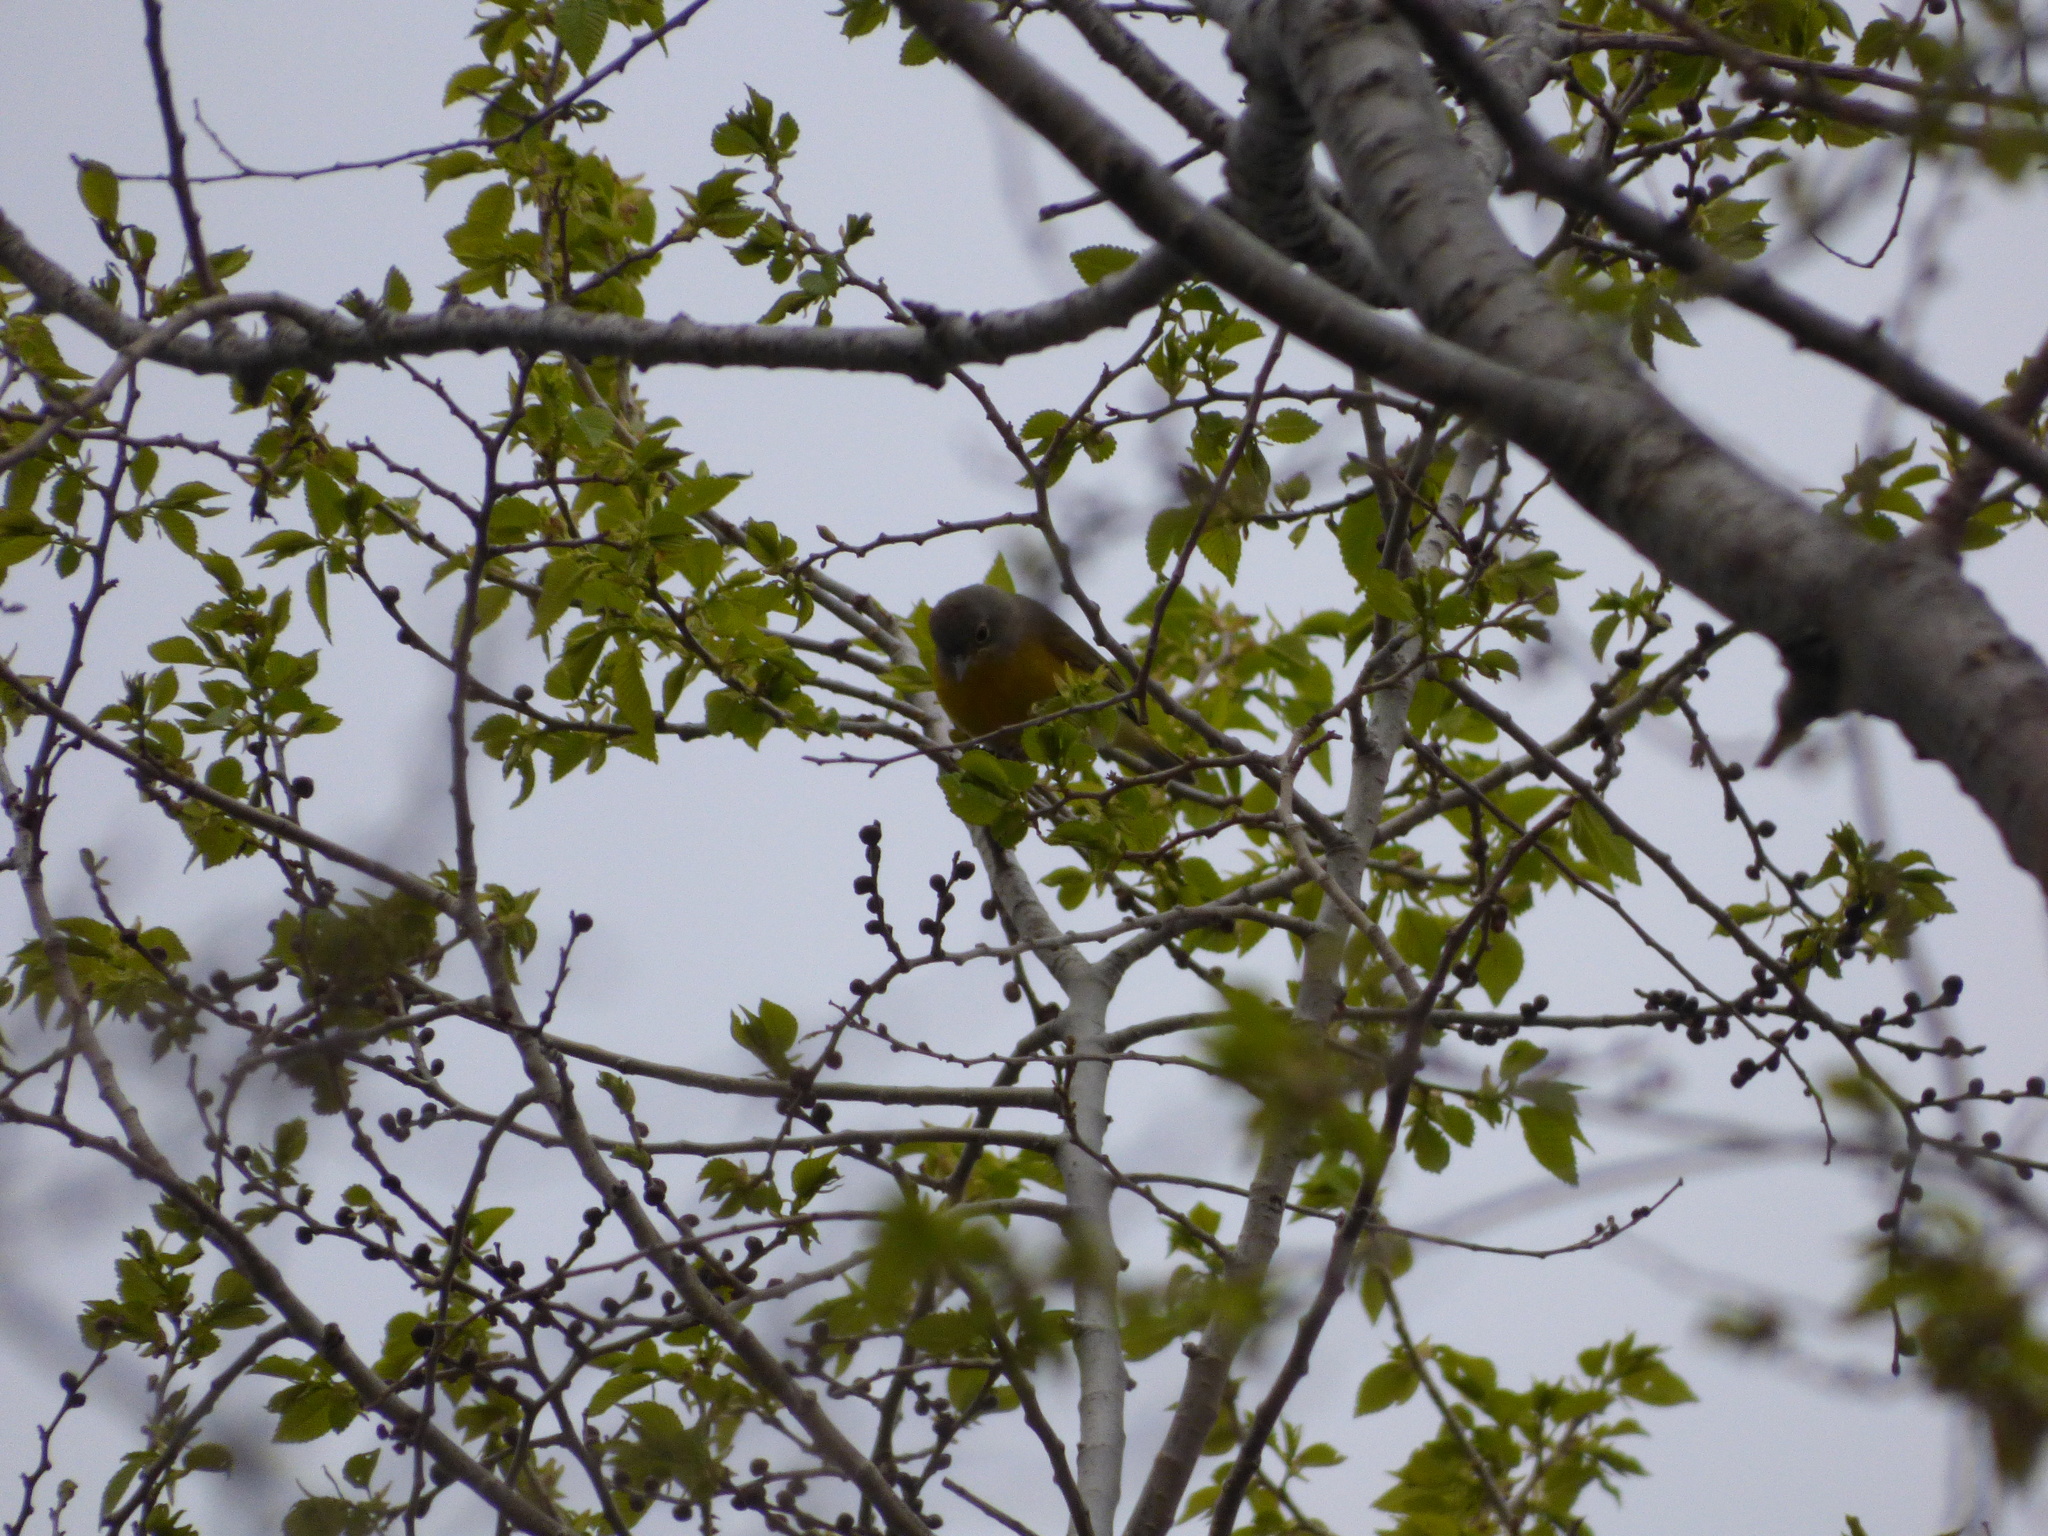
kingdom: Animalia
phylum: Chordata
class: Aves
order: Passeriformes
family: Parulidae
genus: Leiothlypis
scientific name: Leiothlypis ruficapilla
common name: Nashville warbler
